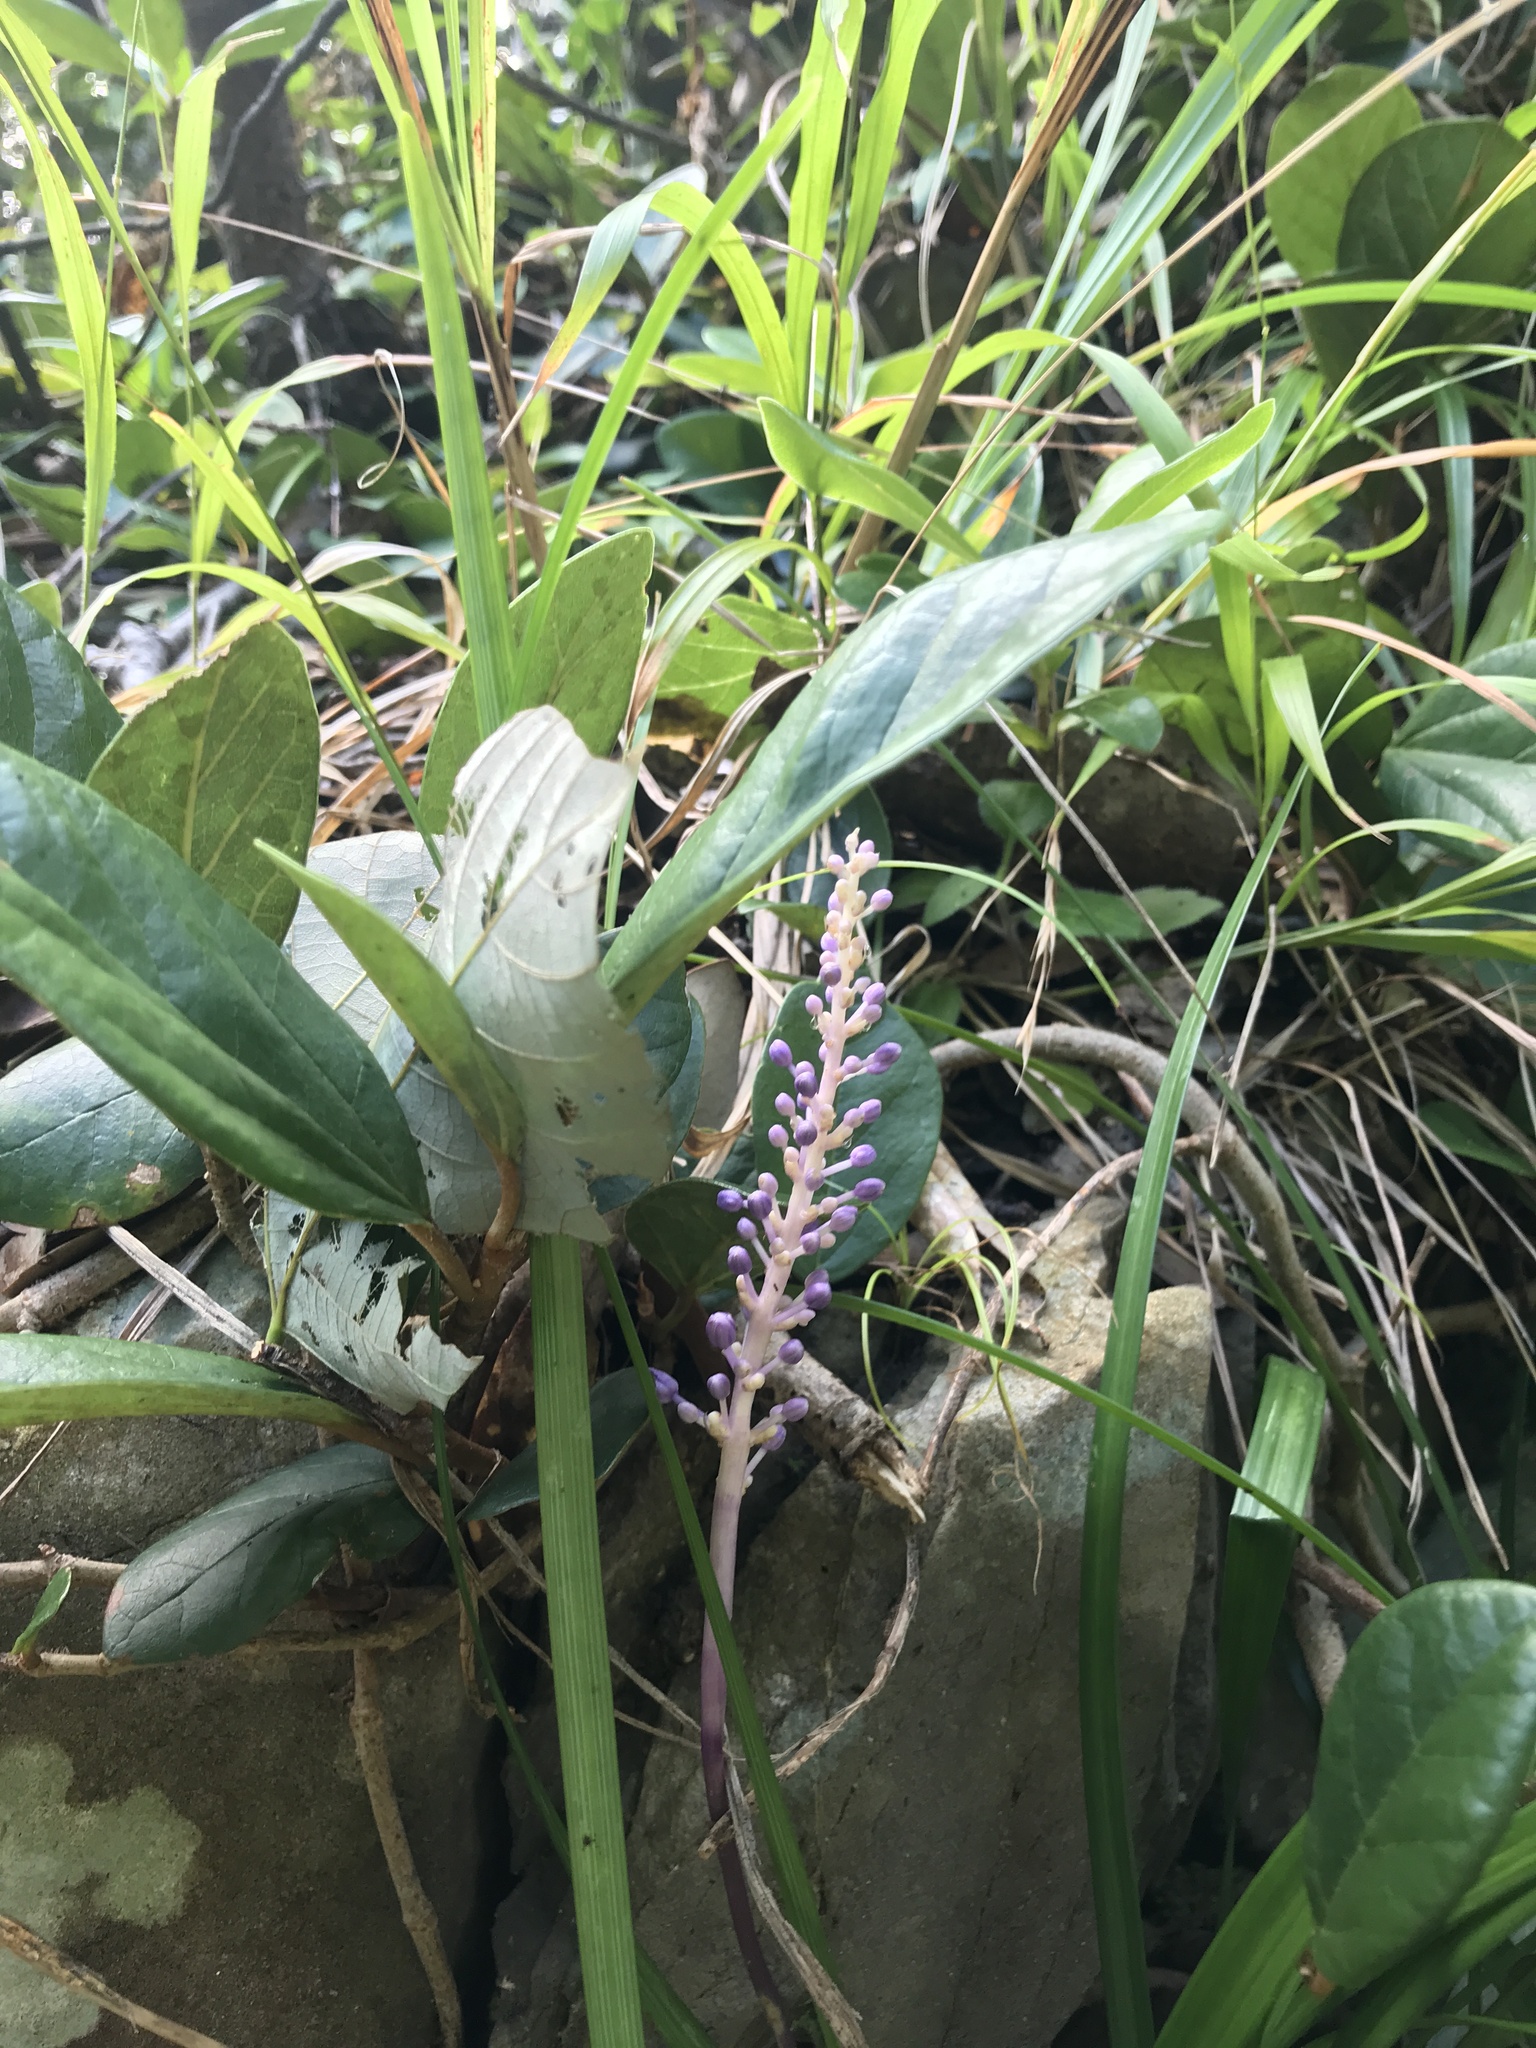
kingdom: Plantae
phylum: Tracheophyta
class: Liliopsida
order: Asparagales
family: Asparagaceae
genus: Liriope
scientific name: Liriope muscari
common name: Big blue lilyturf
